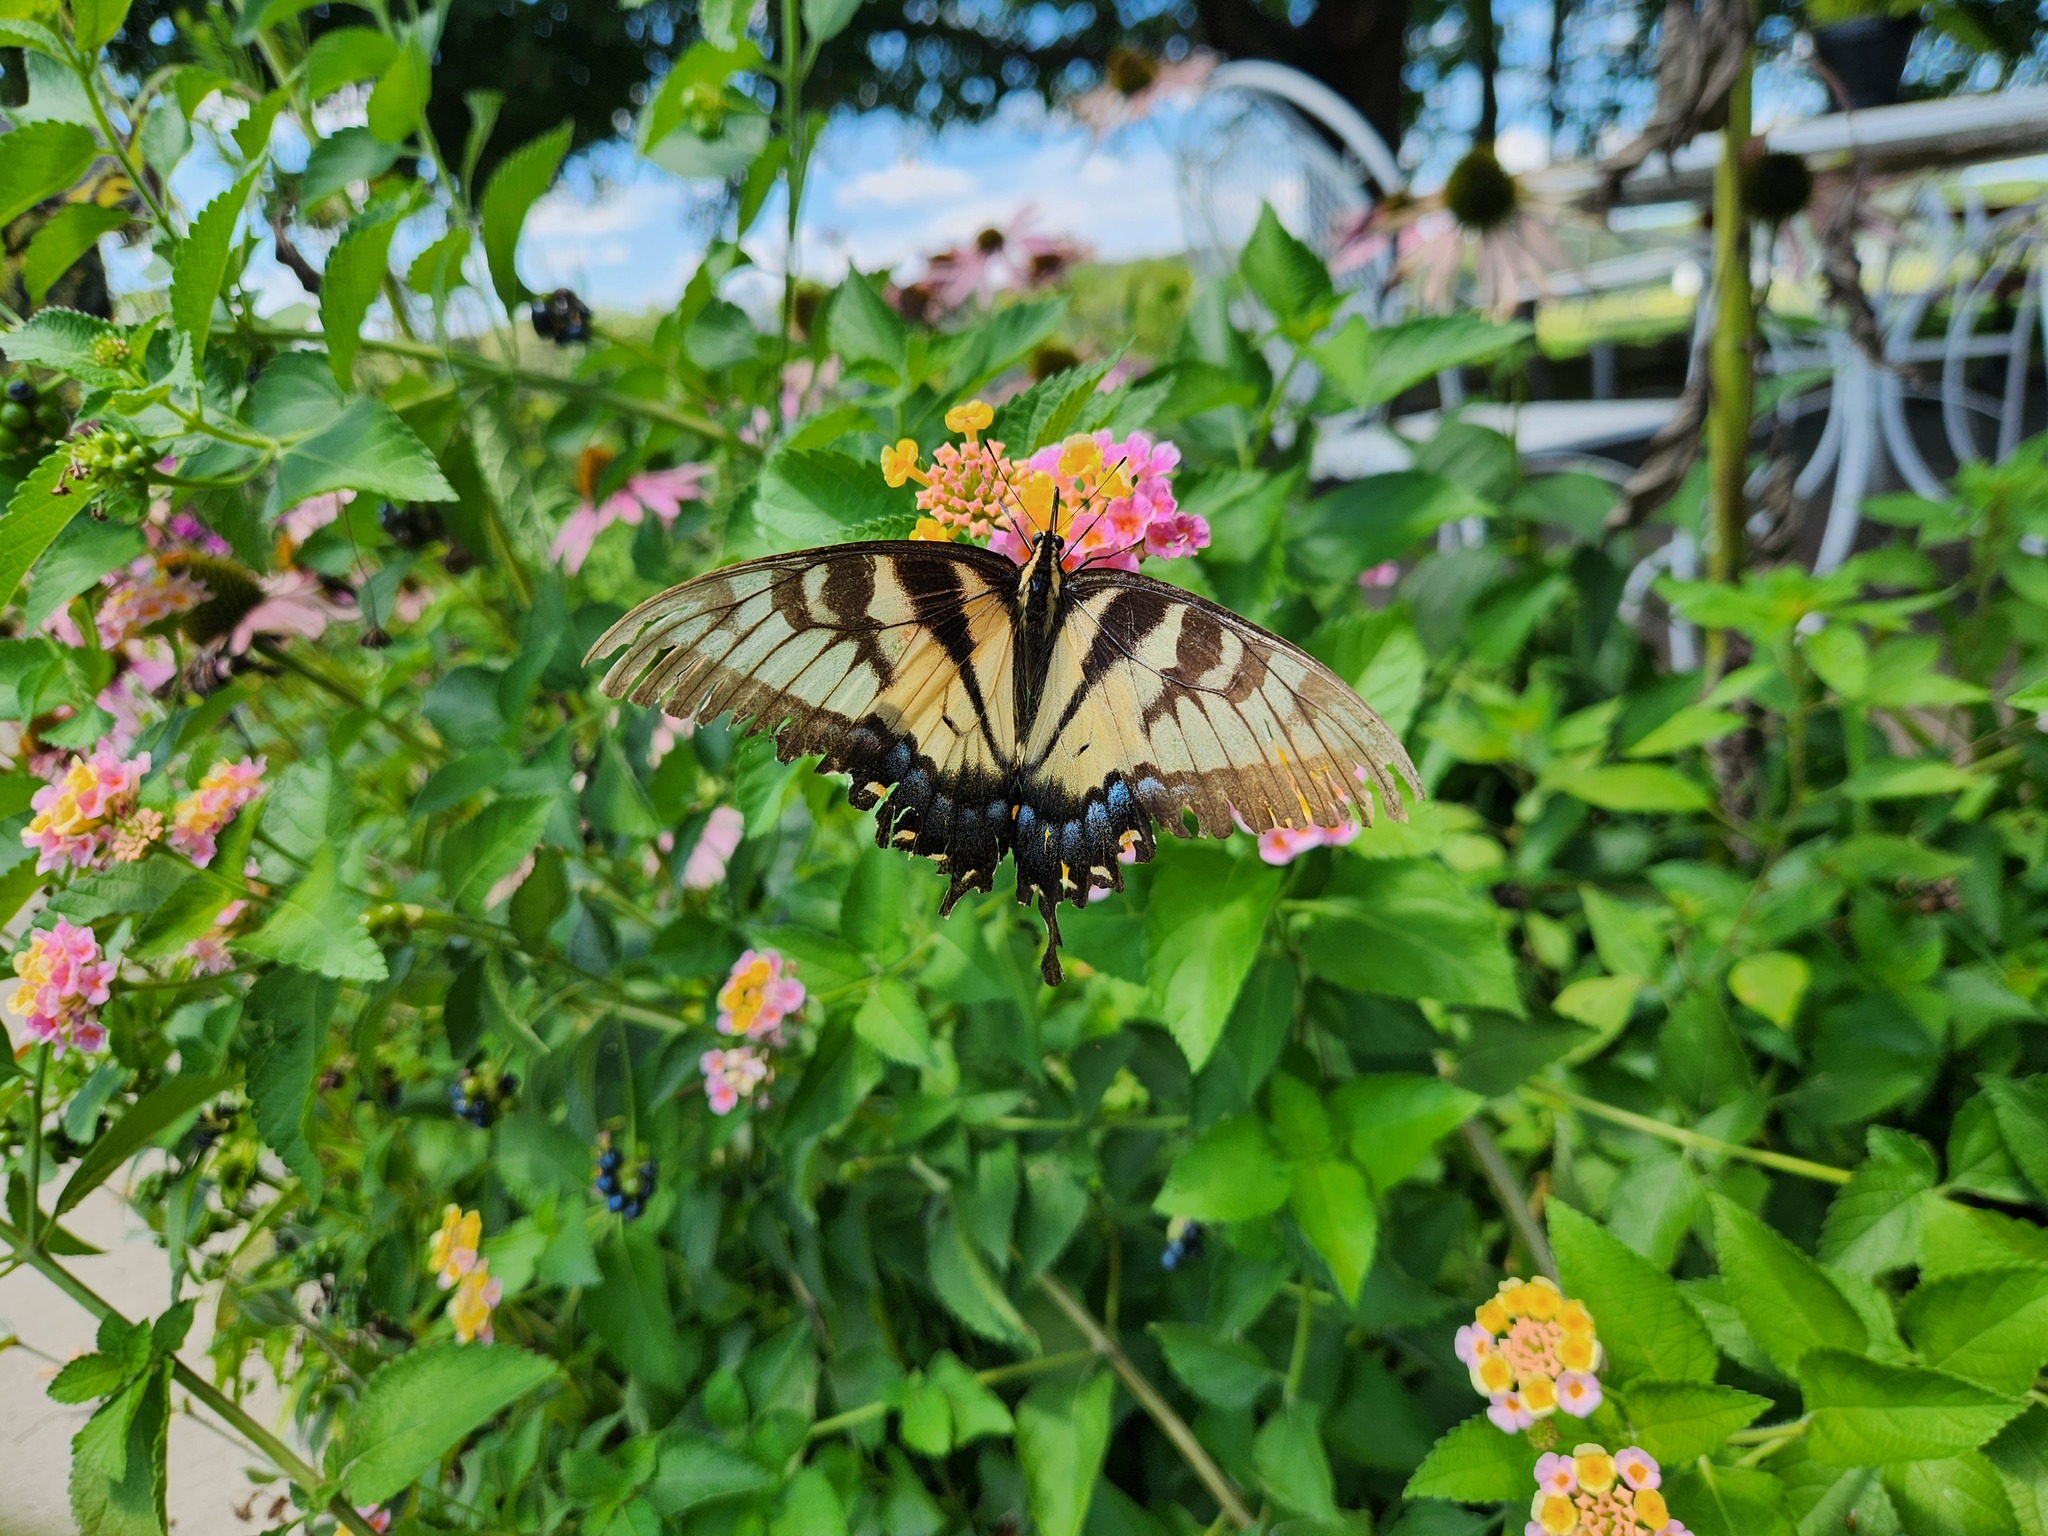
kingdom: Animalia
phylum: Arthropoda
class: Insecta
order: Lepidoptera
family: Papilionidae
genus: Papilio
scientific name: Papilio glaucus
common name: Tiger swallowtail
